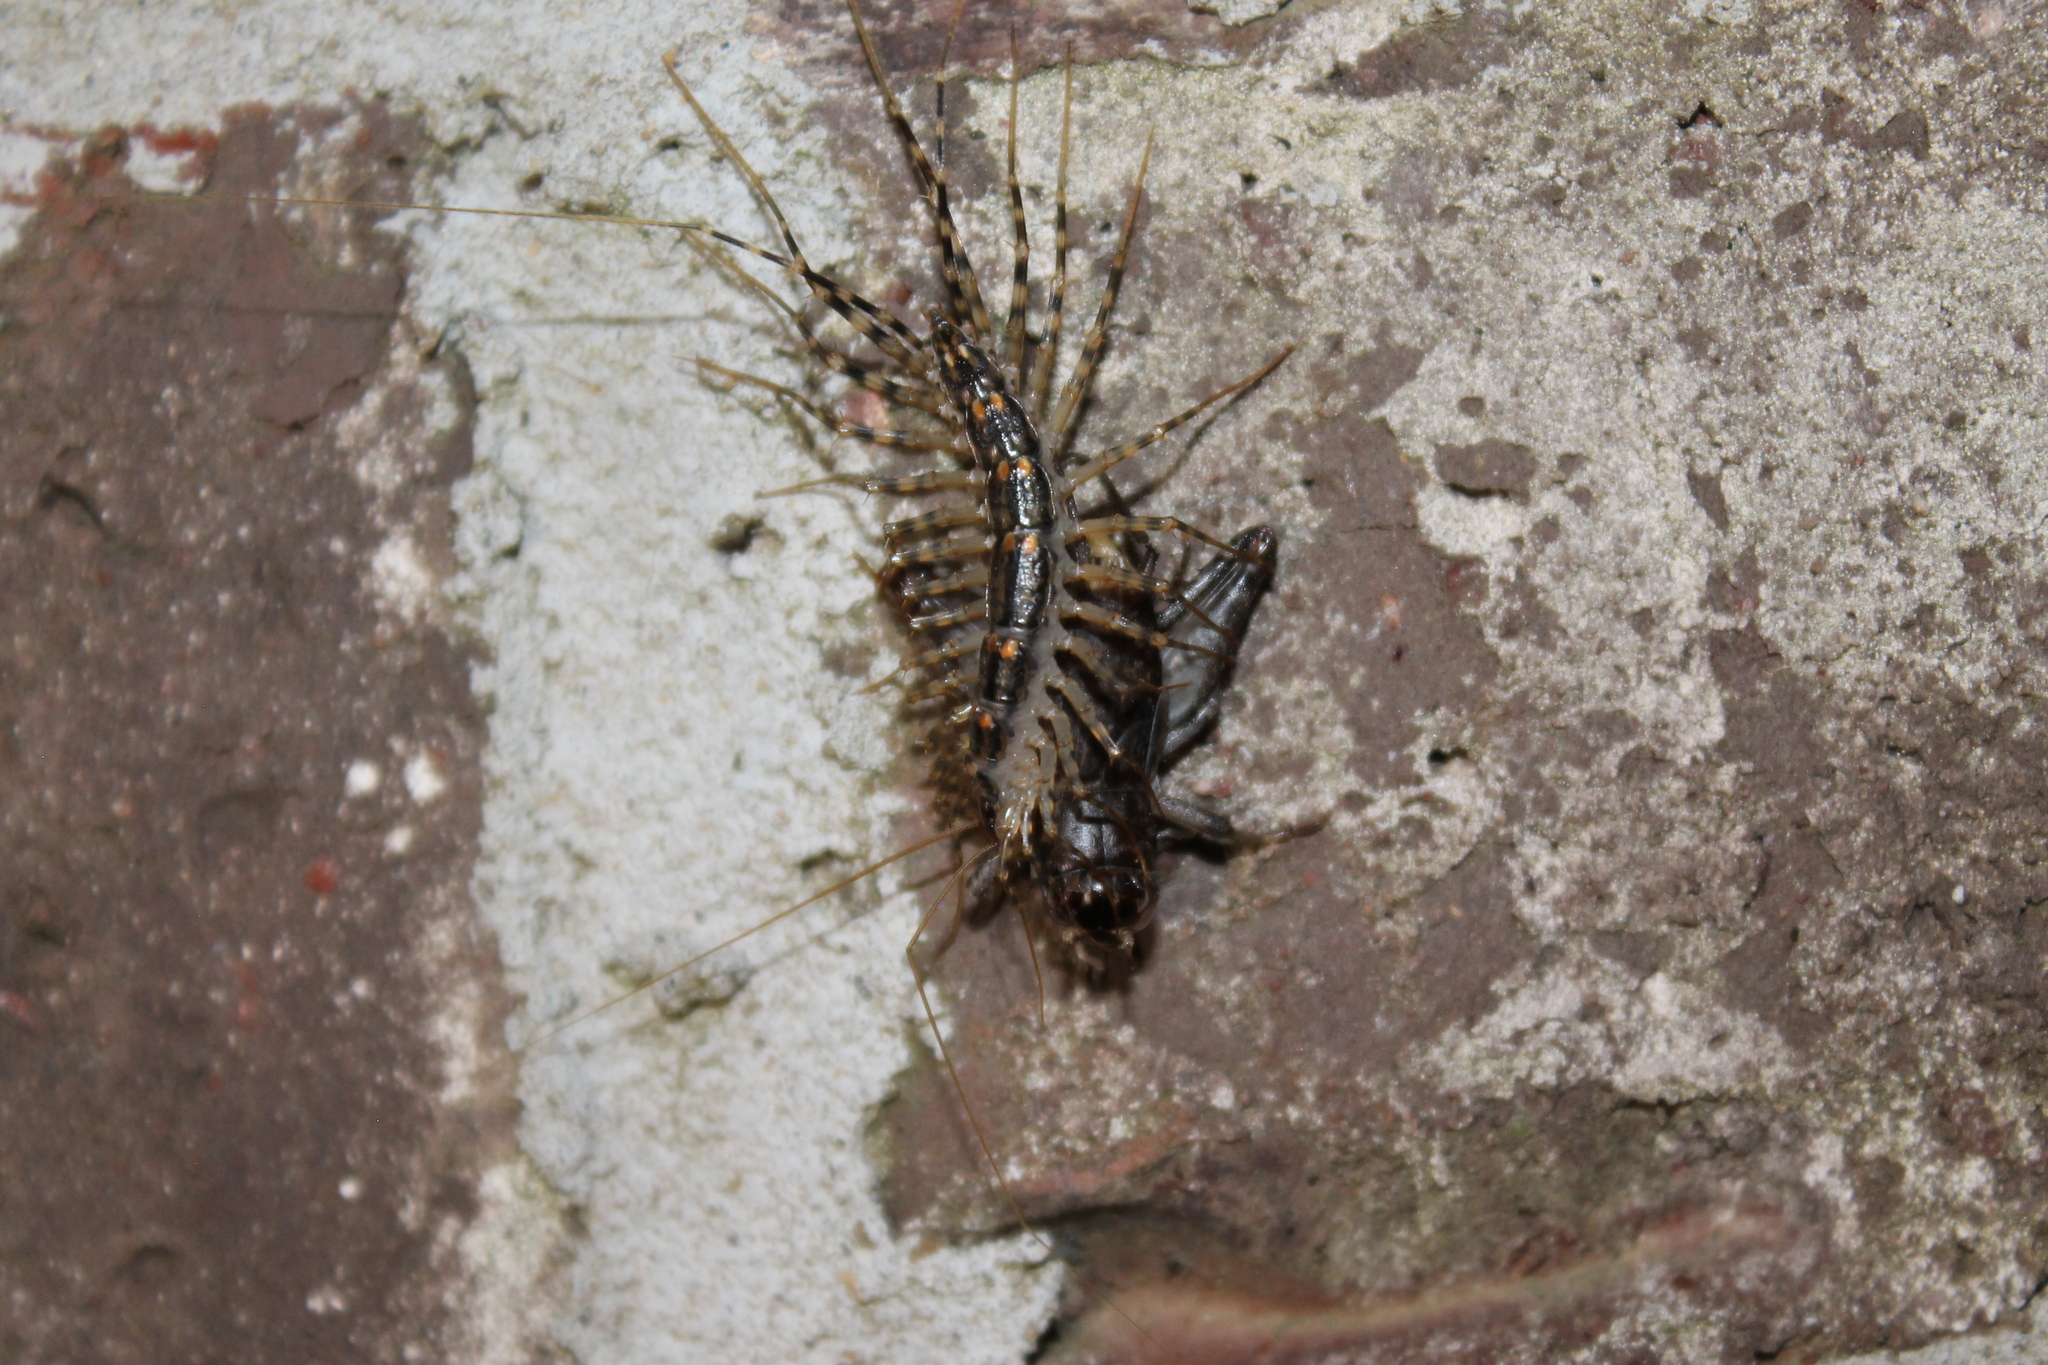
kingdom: Animalia
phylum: Arthropoda
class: Chilopoda
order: Scutigeromorpha
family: Scutigeridae
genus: Thereuonema
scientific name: Thereuonema tuberculata
